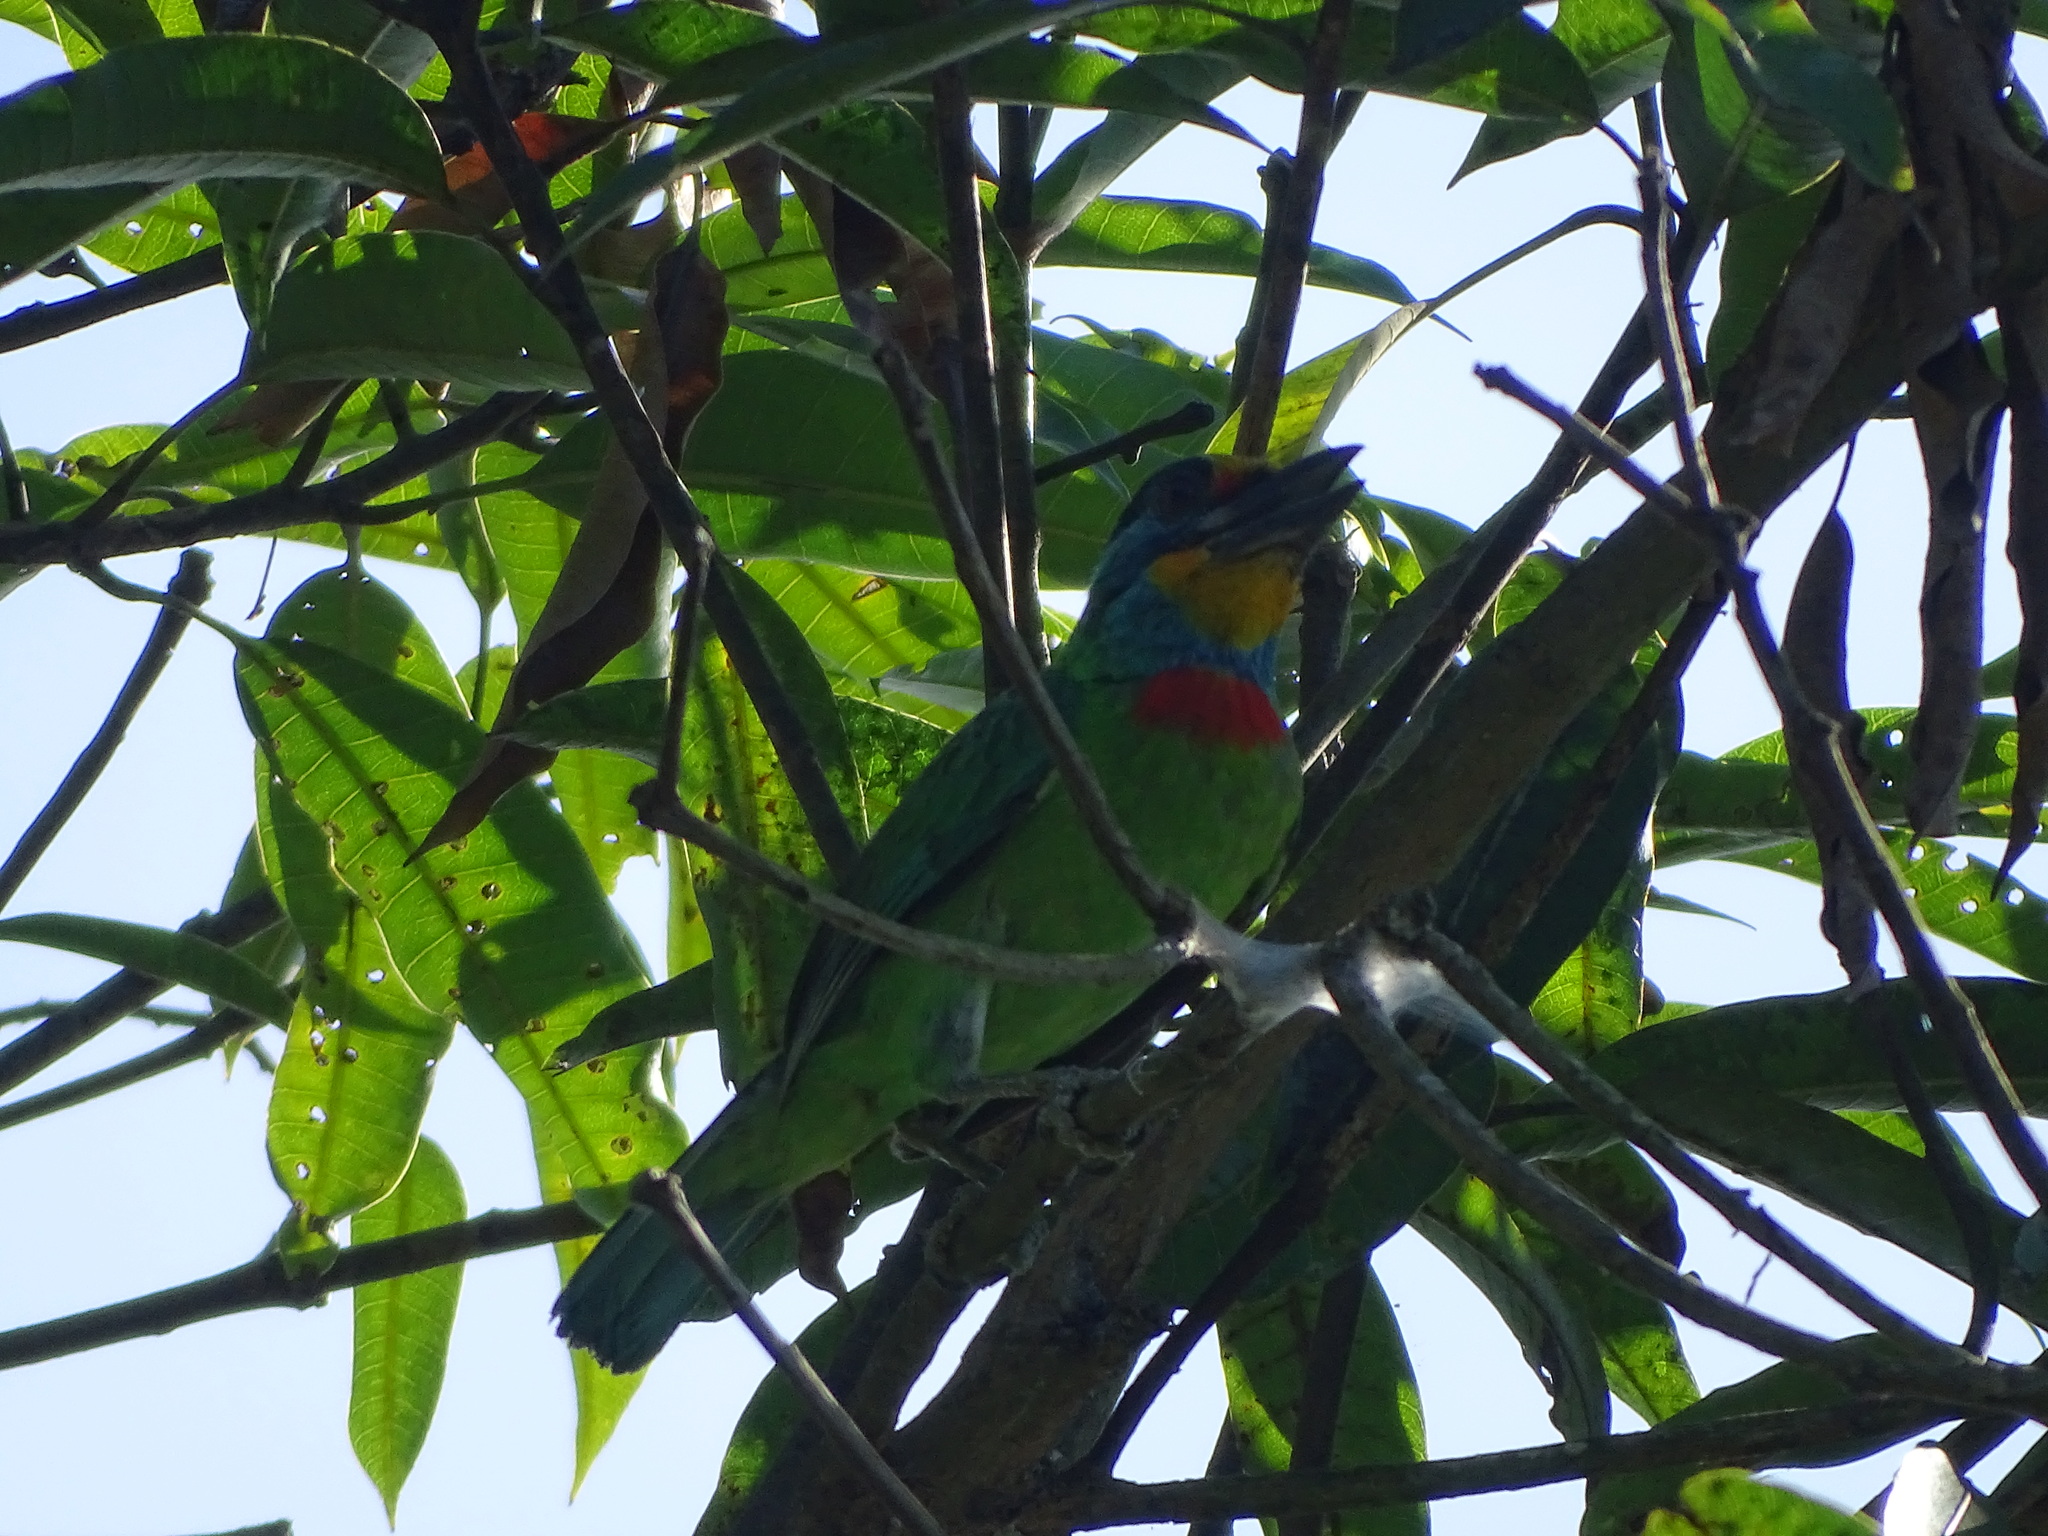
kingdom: Animalia
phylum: Chordata
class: Aves
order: Piciformes
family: Megalaimidae
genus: Psilopogon
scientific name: Psilopogon nuchalis
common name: Taiwan barbet
